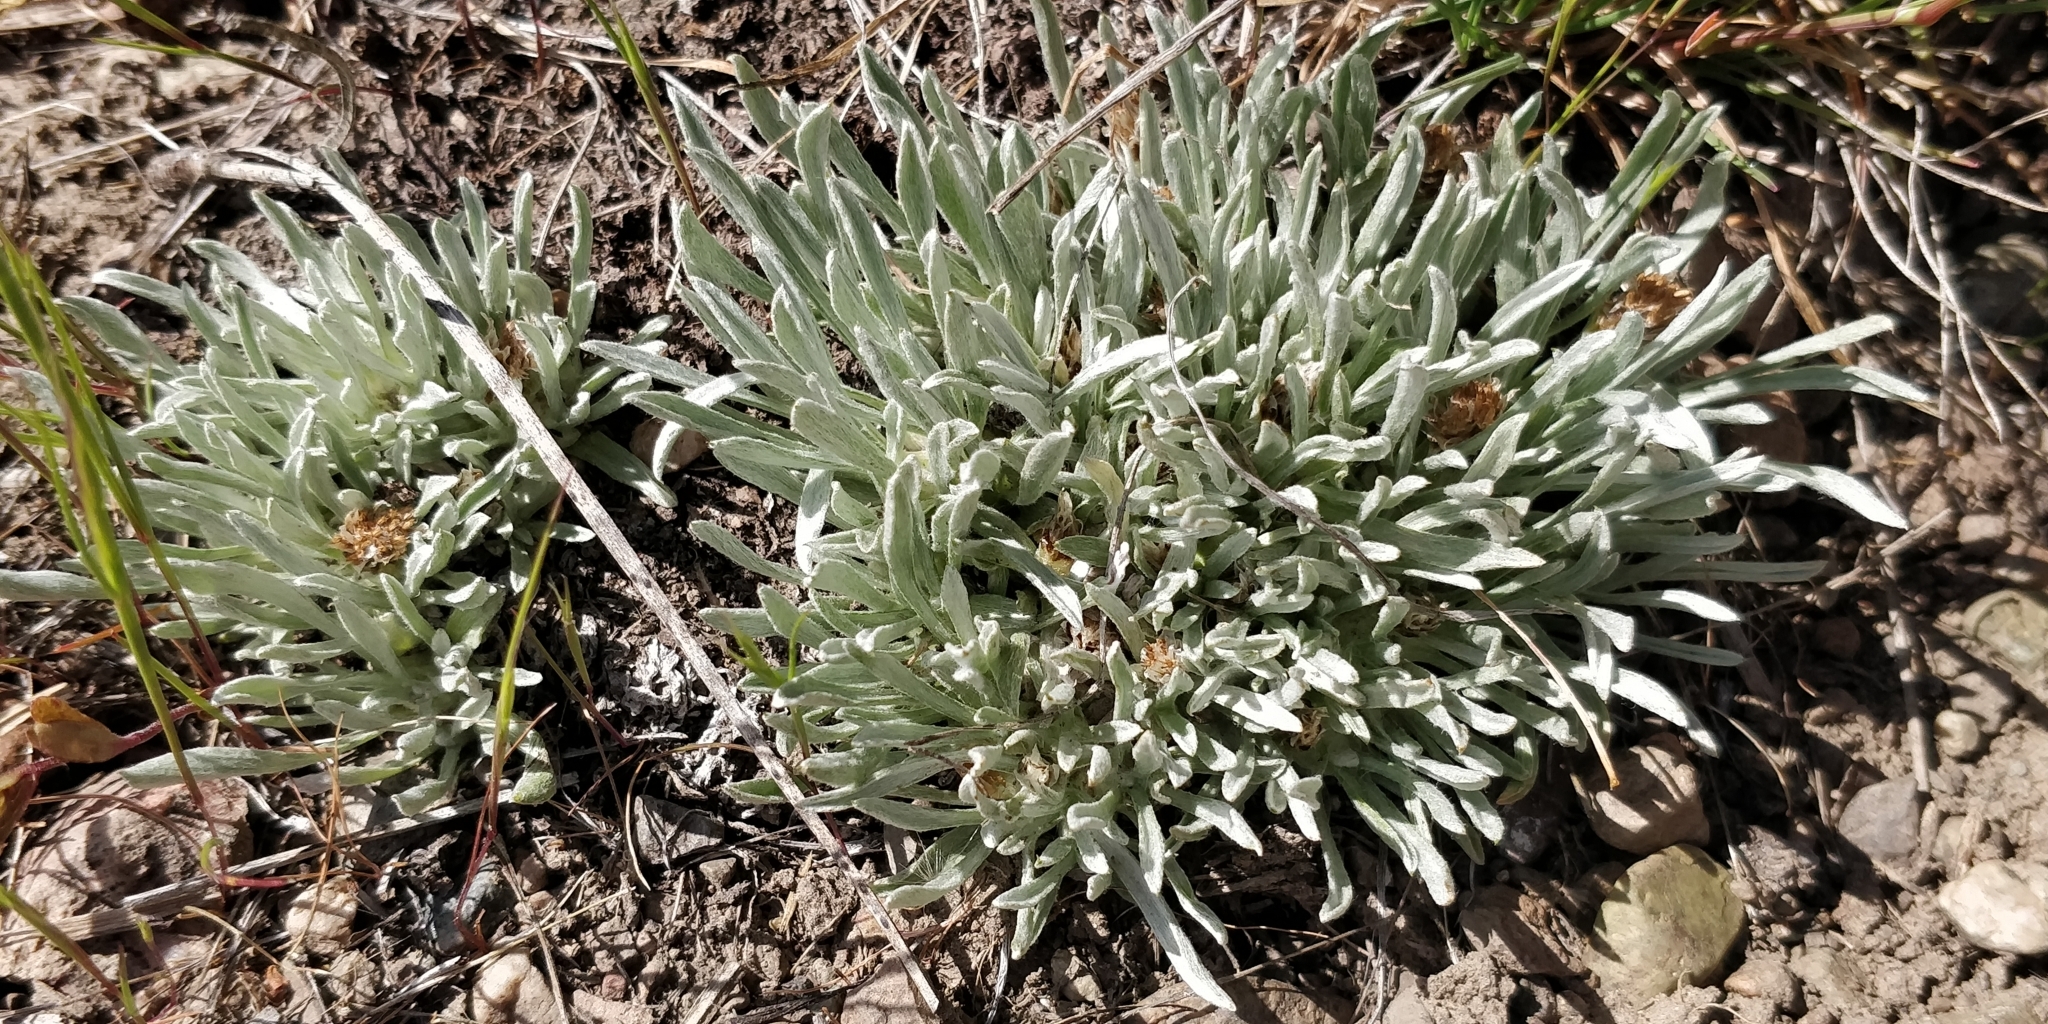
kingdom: Plantae
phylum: Tracheophyta
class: Magnoliopsida
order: Asterales
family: Asteraceae
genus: Antennaria
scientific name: Antennaria dimorpha
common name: Cushion pussytoes
